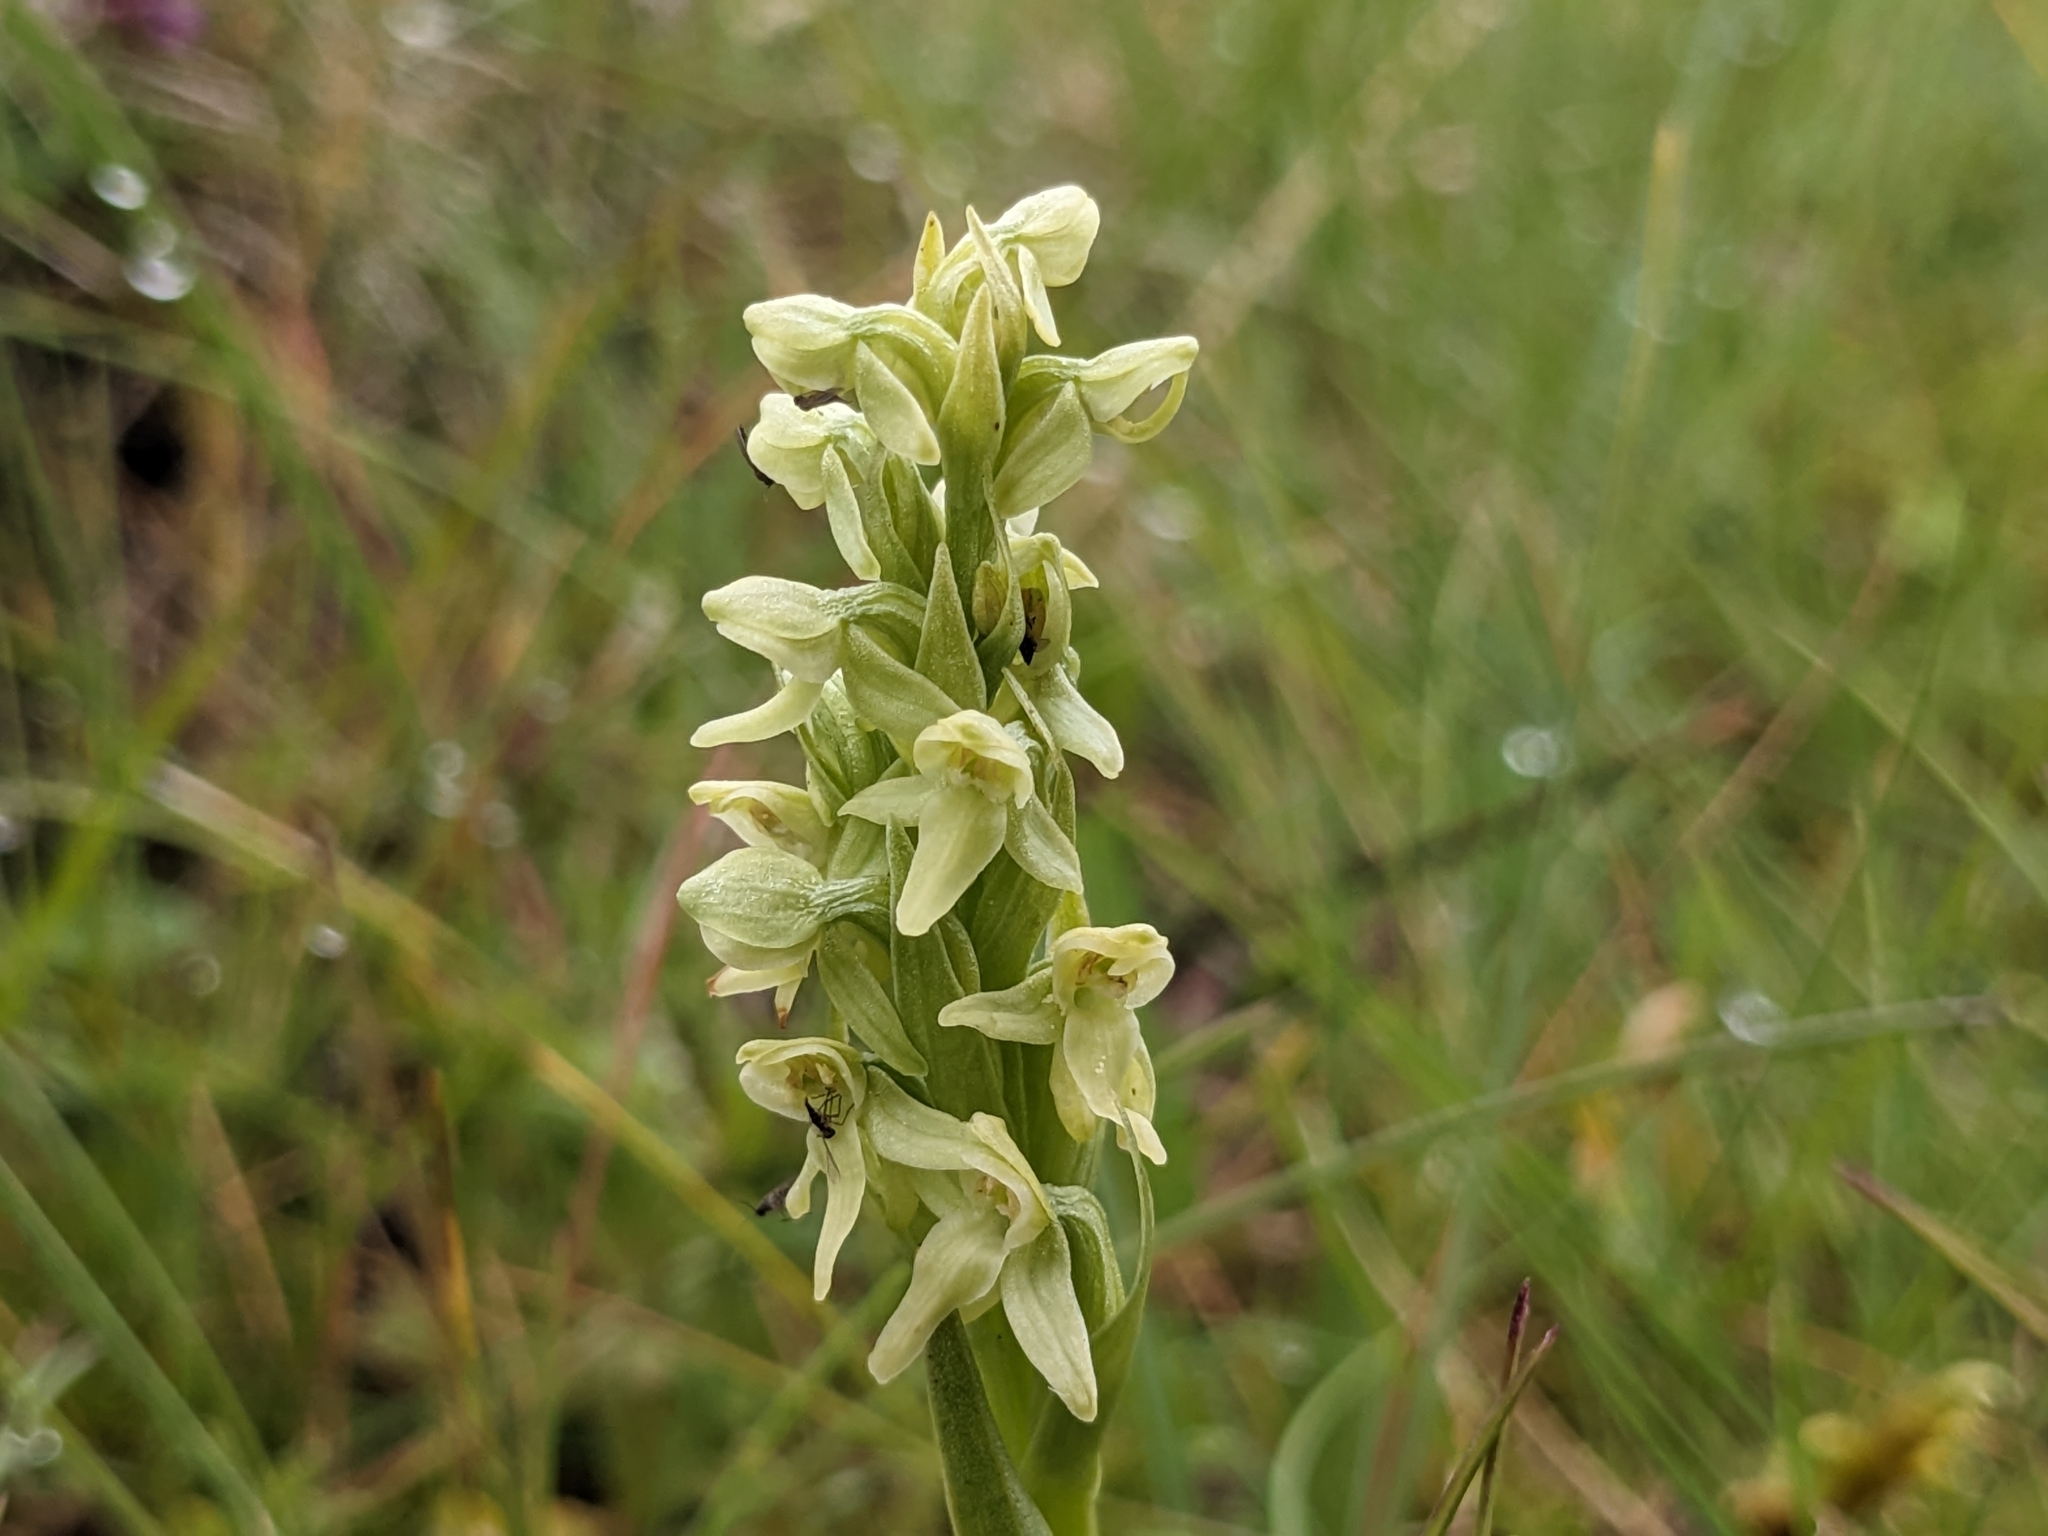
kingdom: Plantae
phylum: Tracheophyta
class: Liliopsida
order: Asparagales
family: Orchidaceae
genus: Platanthera
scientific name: Platanthera hyperborea
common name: Northern green orchid
